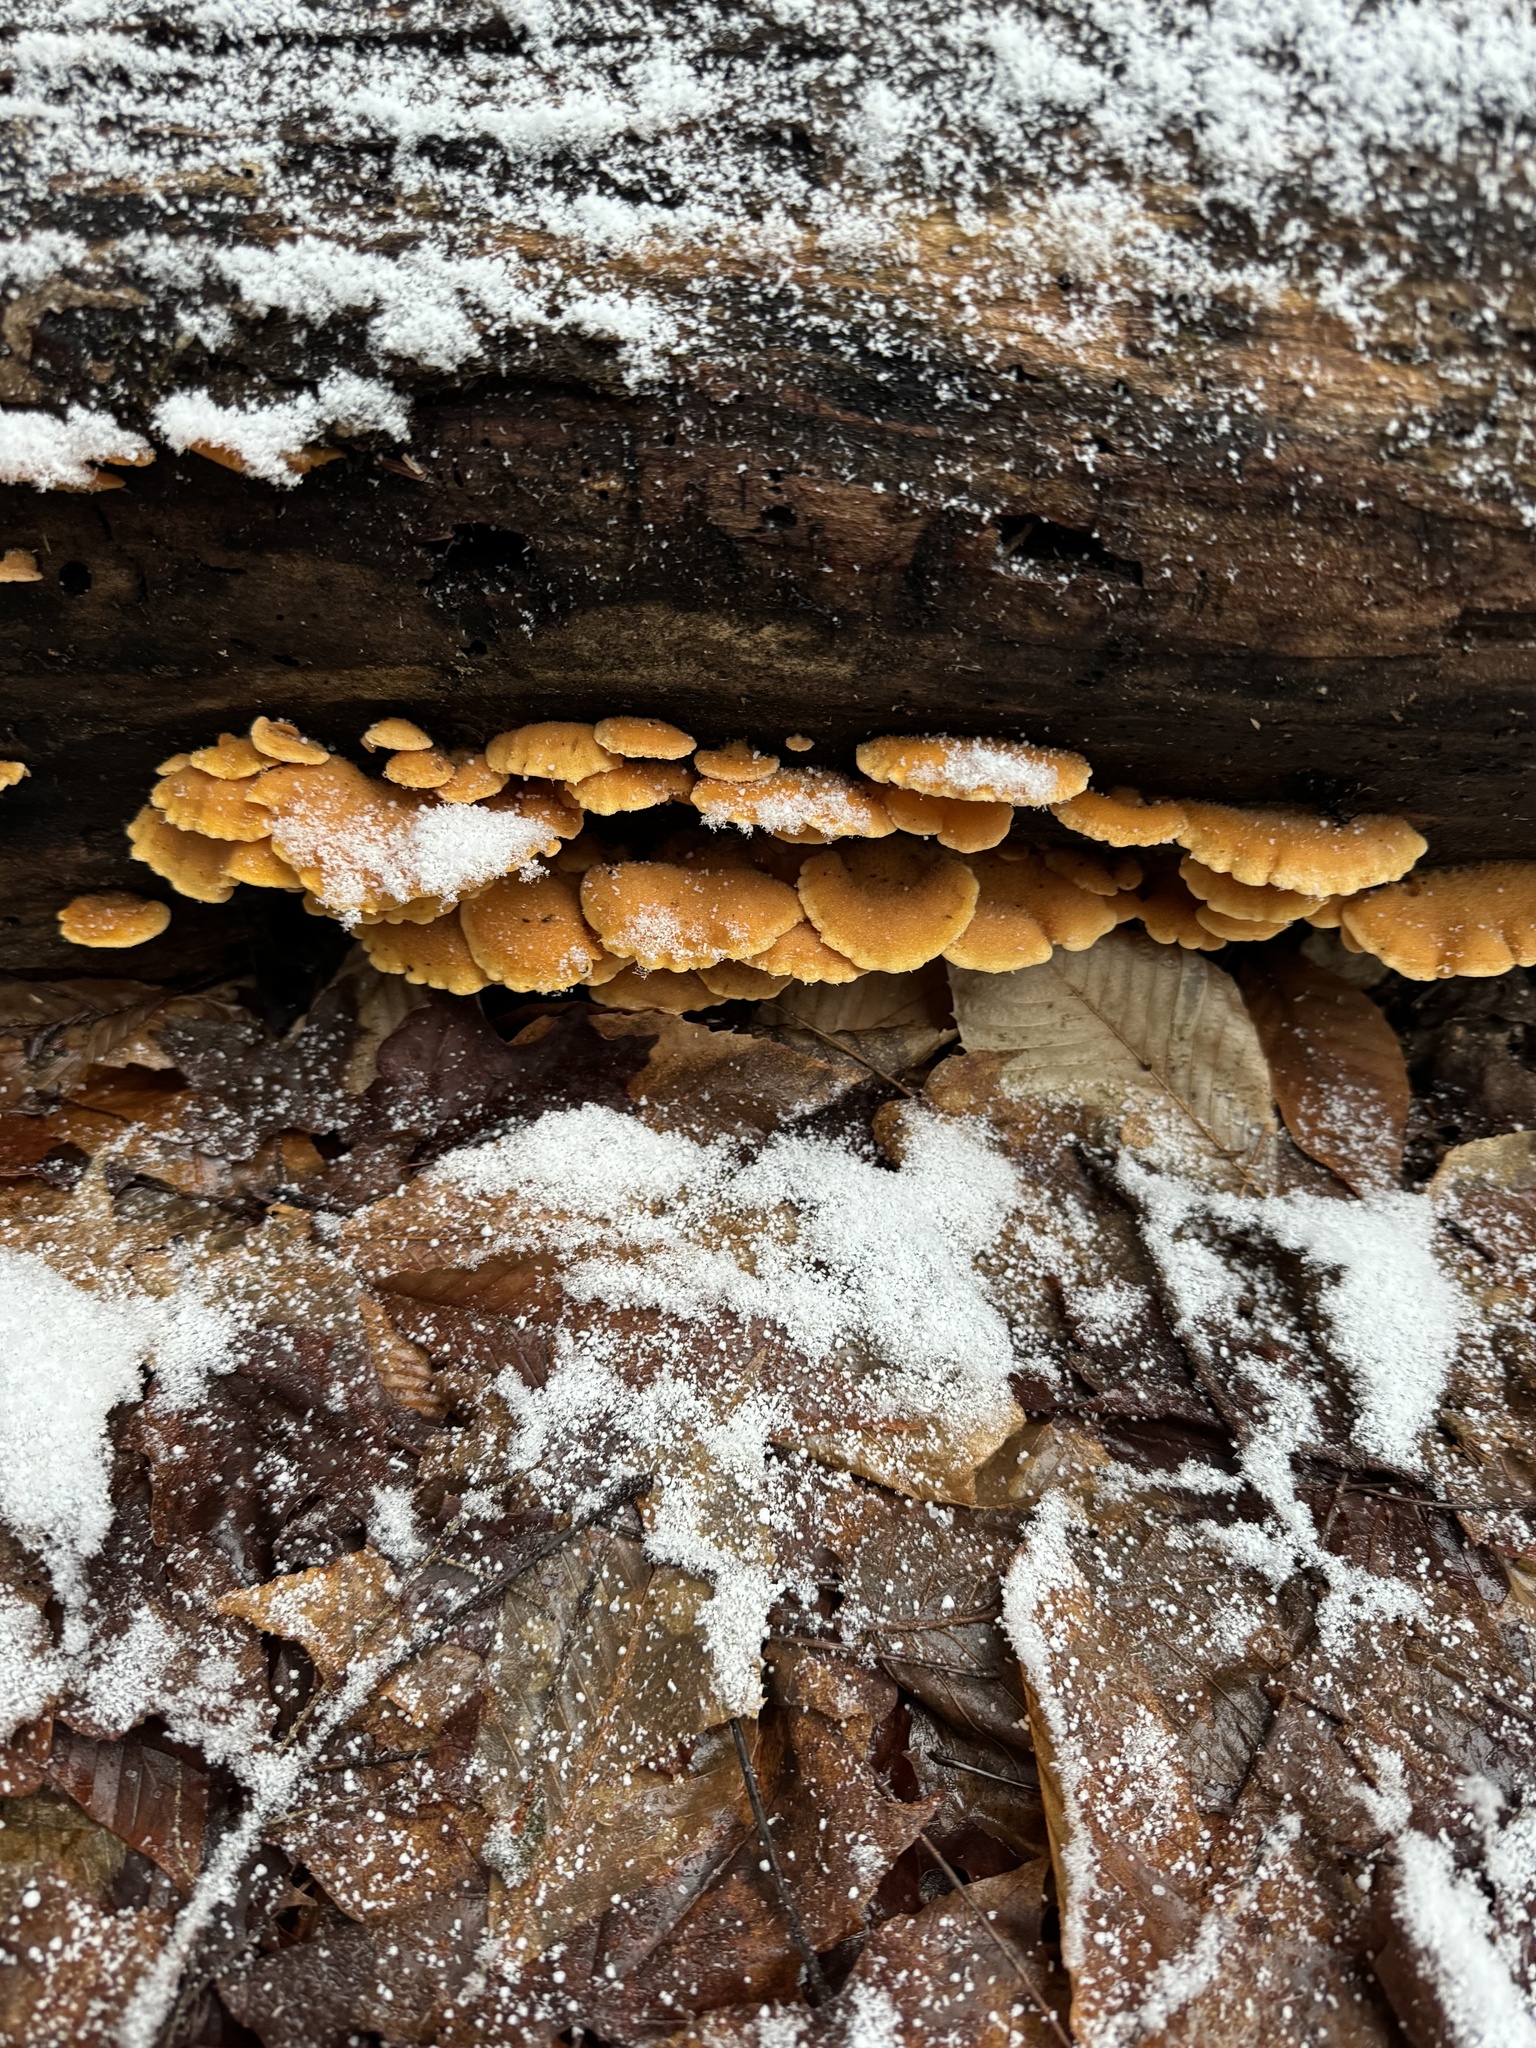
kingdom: Fungi
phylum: Basidiomycota
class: Agaricomycetes
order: Agaricales
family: Phyllotopsidaceae
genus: Phyllotopsis
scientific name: Phyllotopsis nidulans
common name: Orange mock oyster
